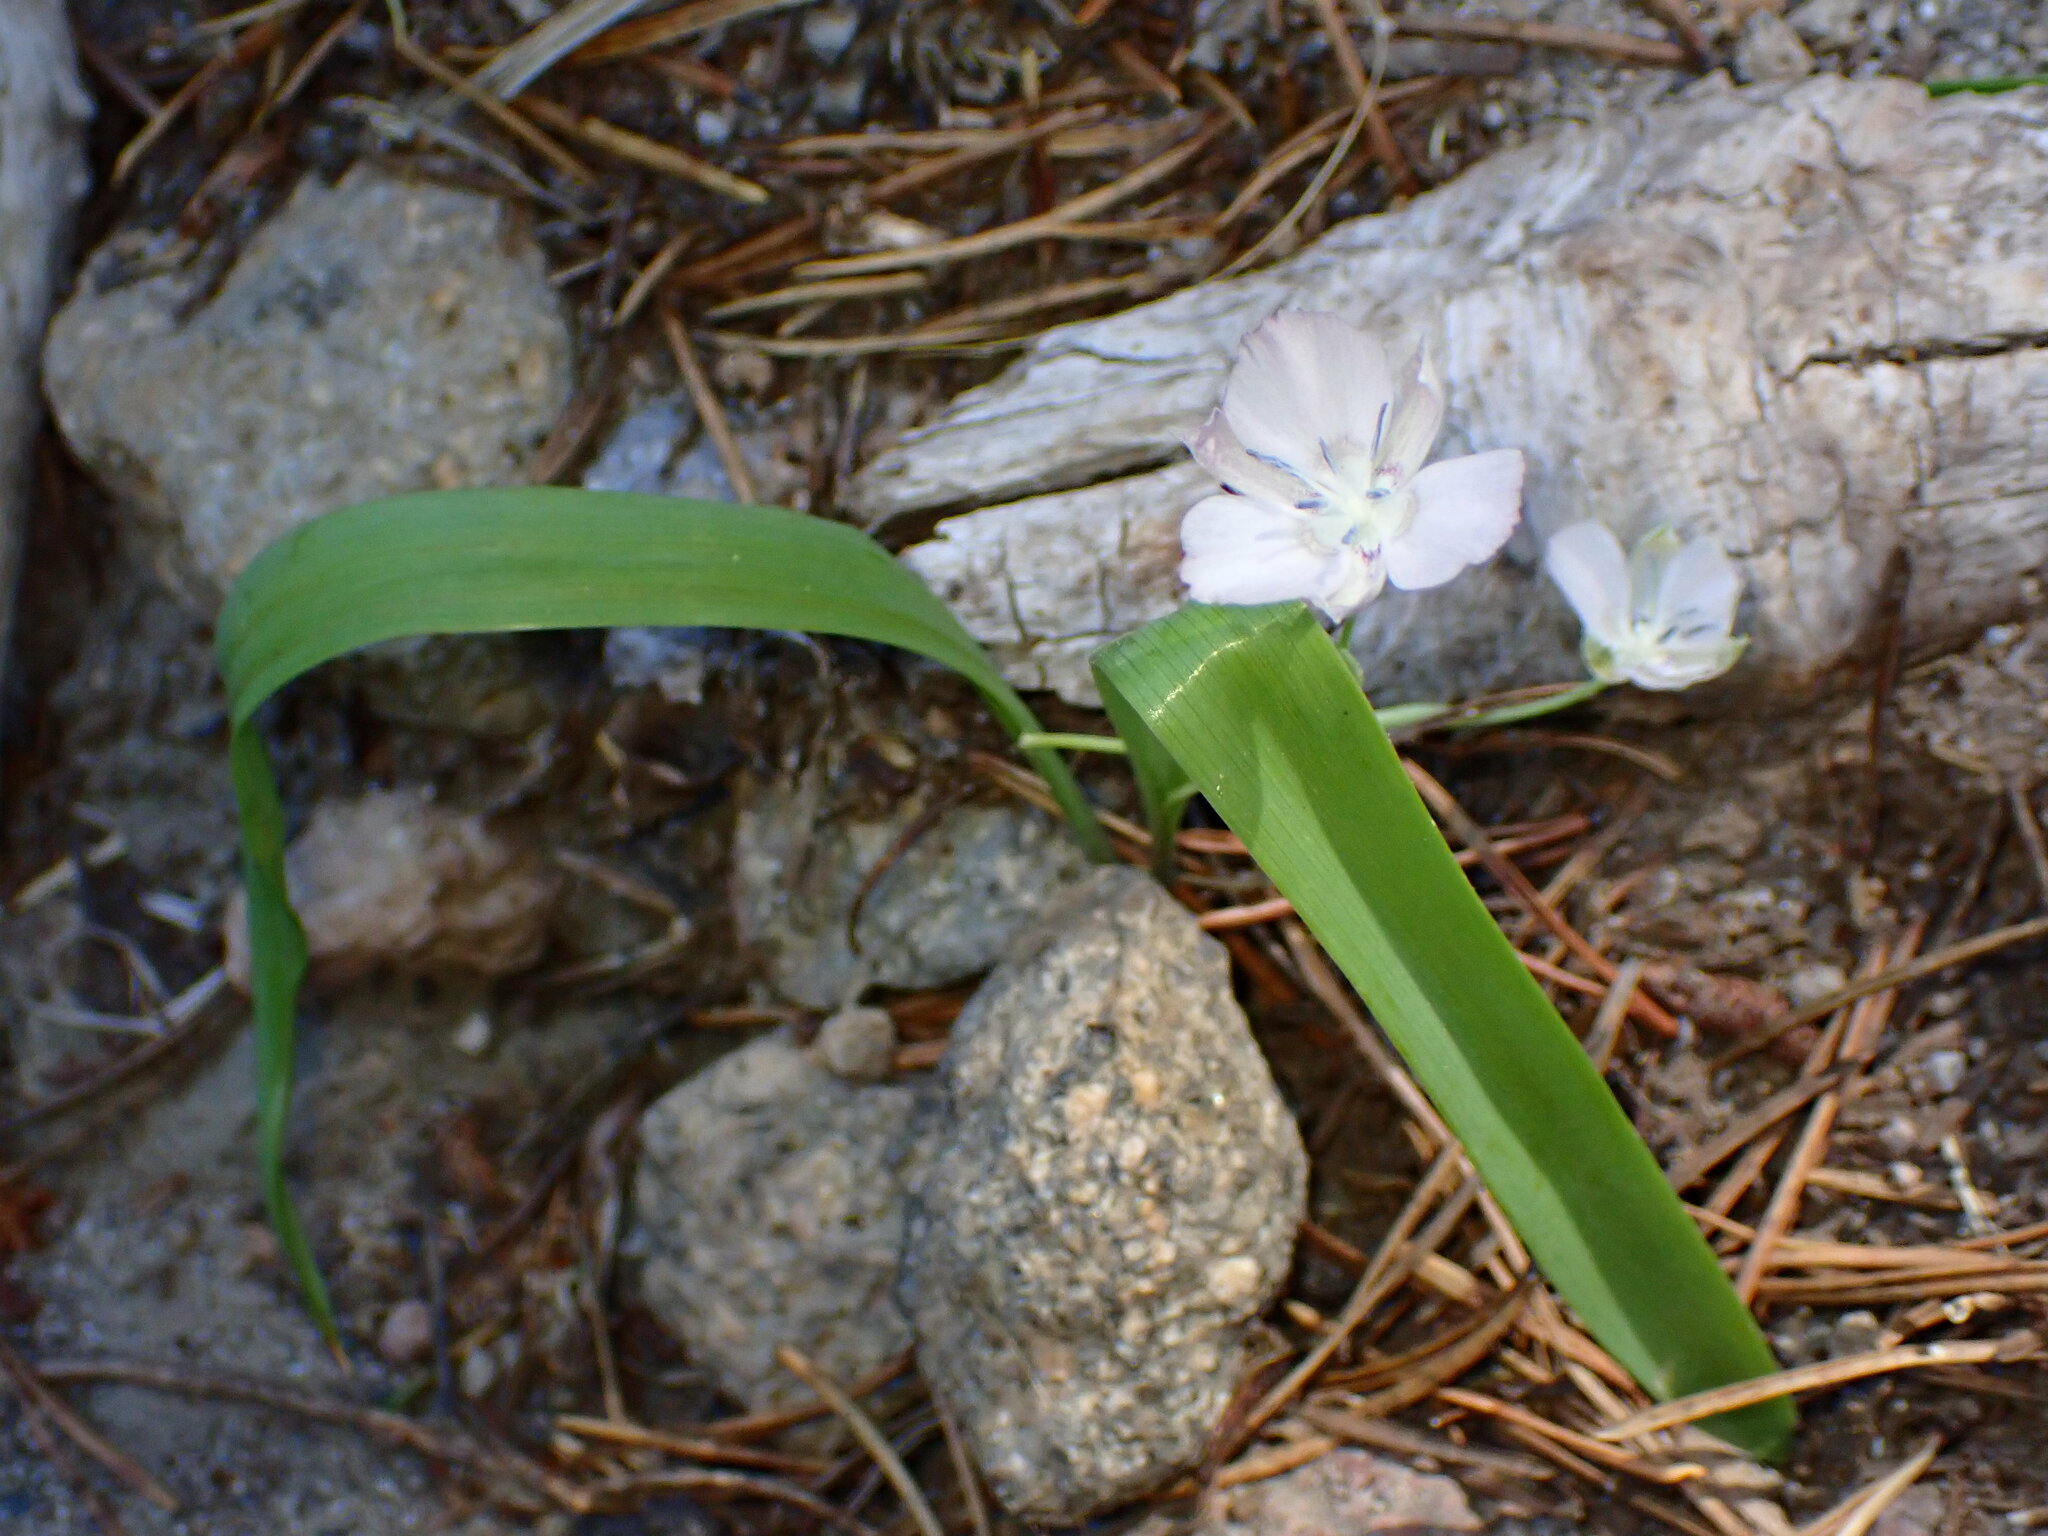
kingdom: Plantae
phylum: Tracheophyta
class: Liliopsida
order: Liliales
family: Liliaceae
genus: Calochortus
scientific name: Calochortus minimus
